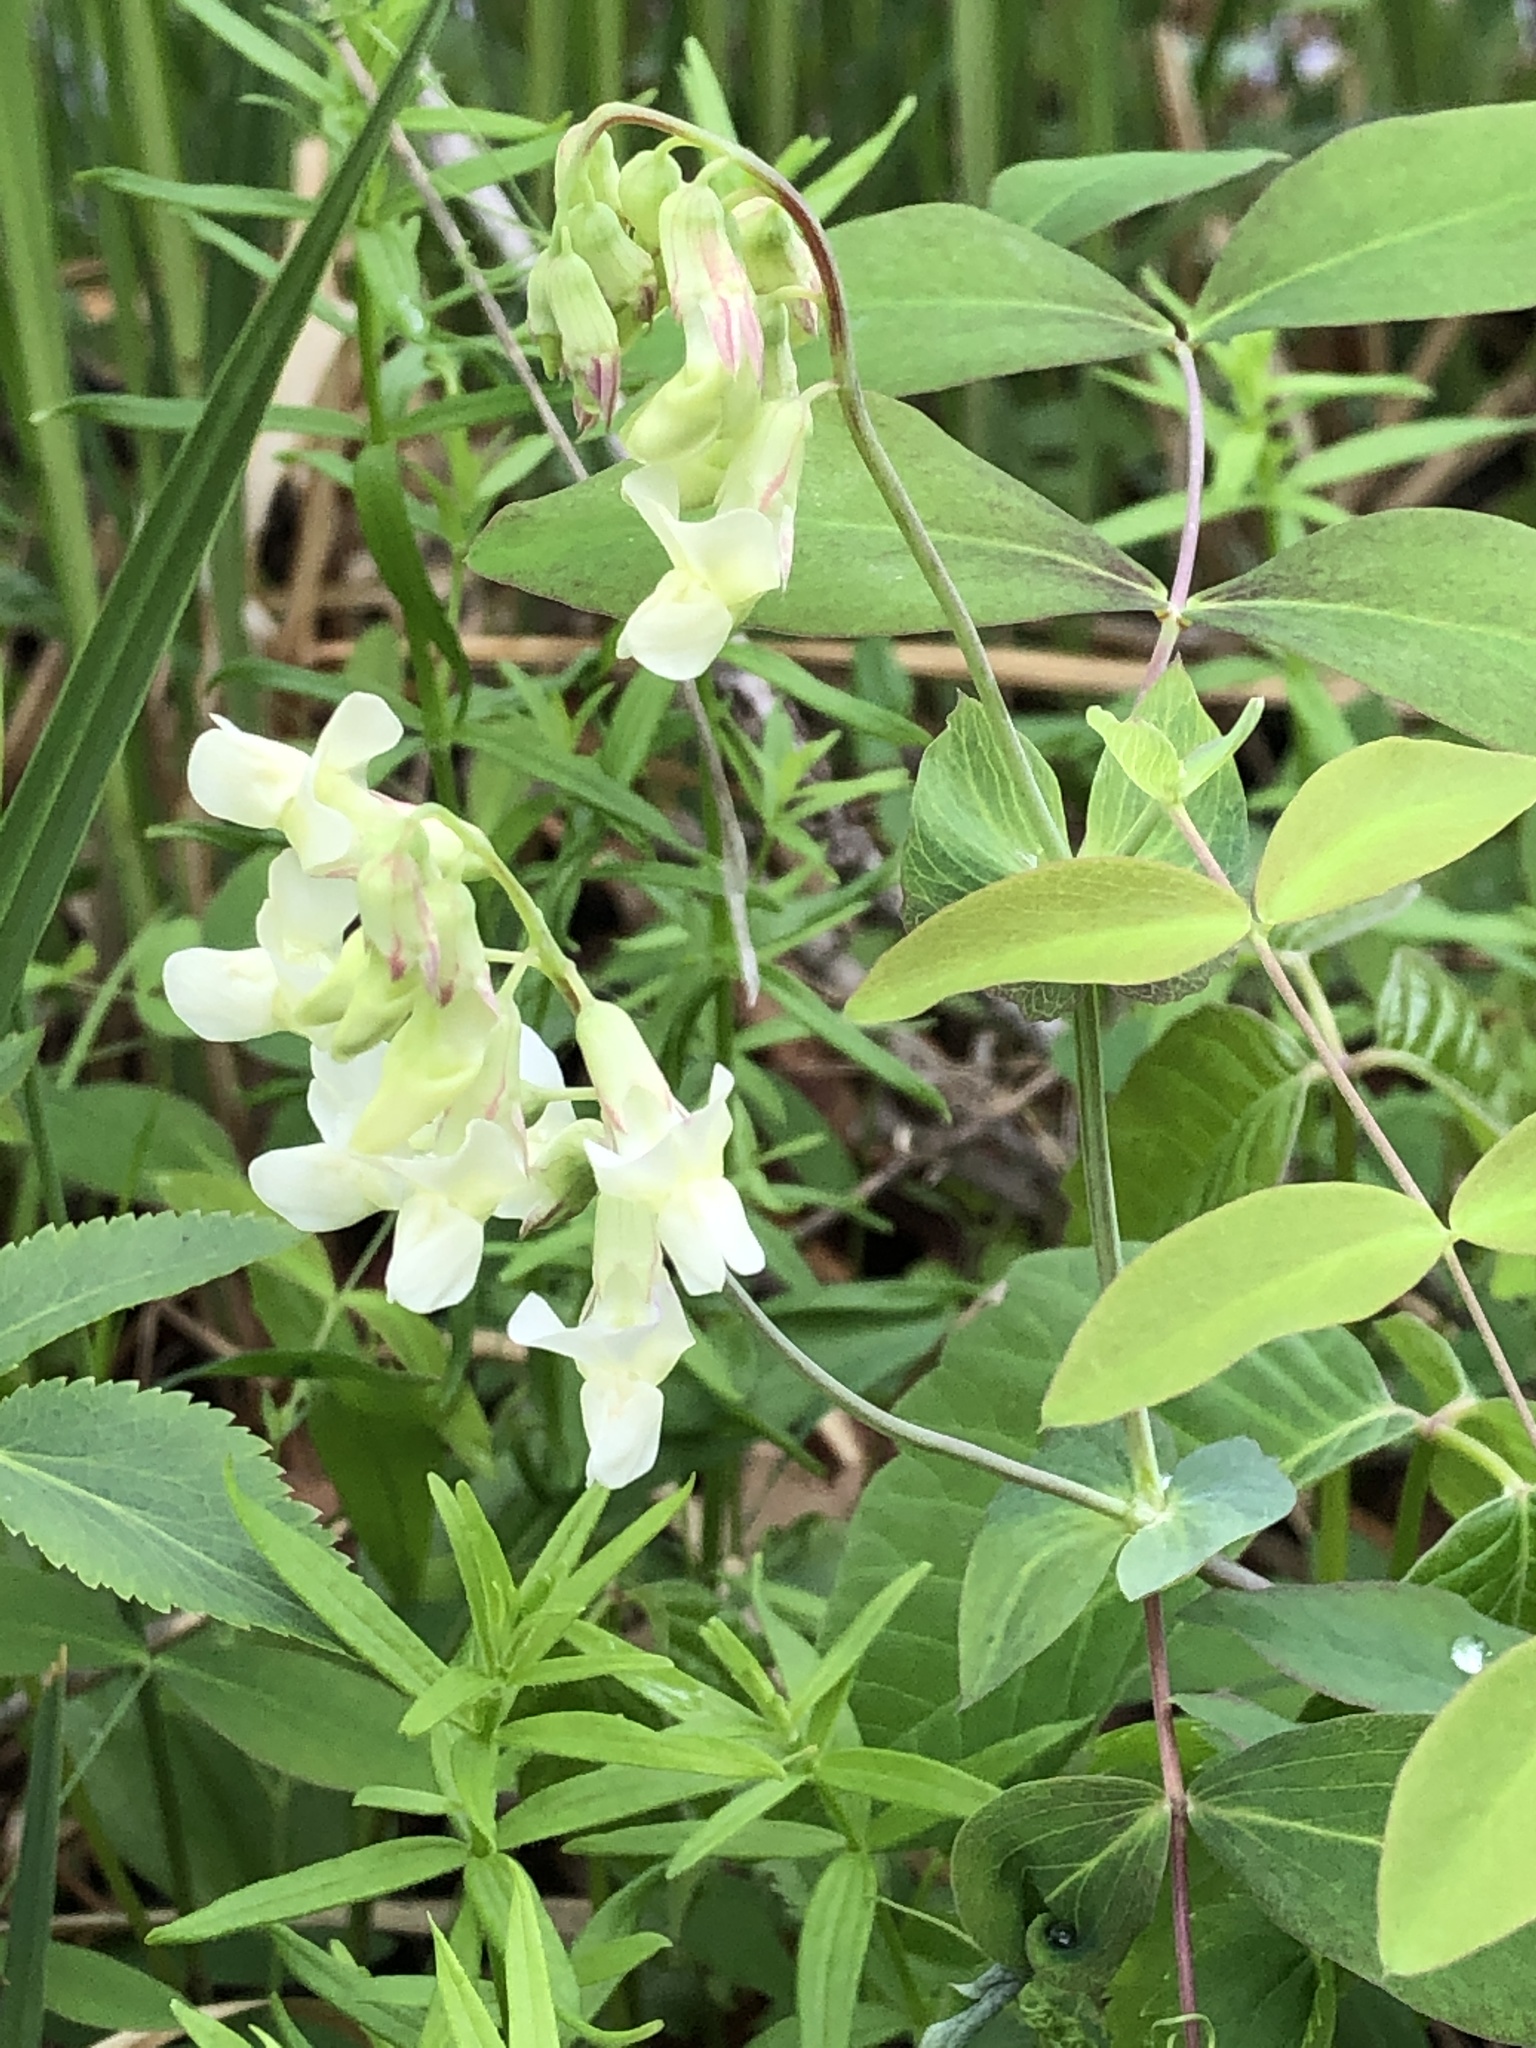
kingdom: Plantae
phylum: Tracheophyta
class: Magnoliopsida
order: Fabales
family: Fabaceae
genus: Lathyrus
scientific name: Lathyrus ochroleucus
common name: Pale vetchling
